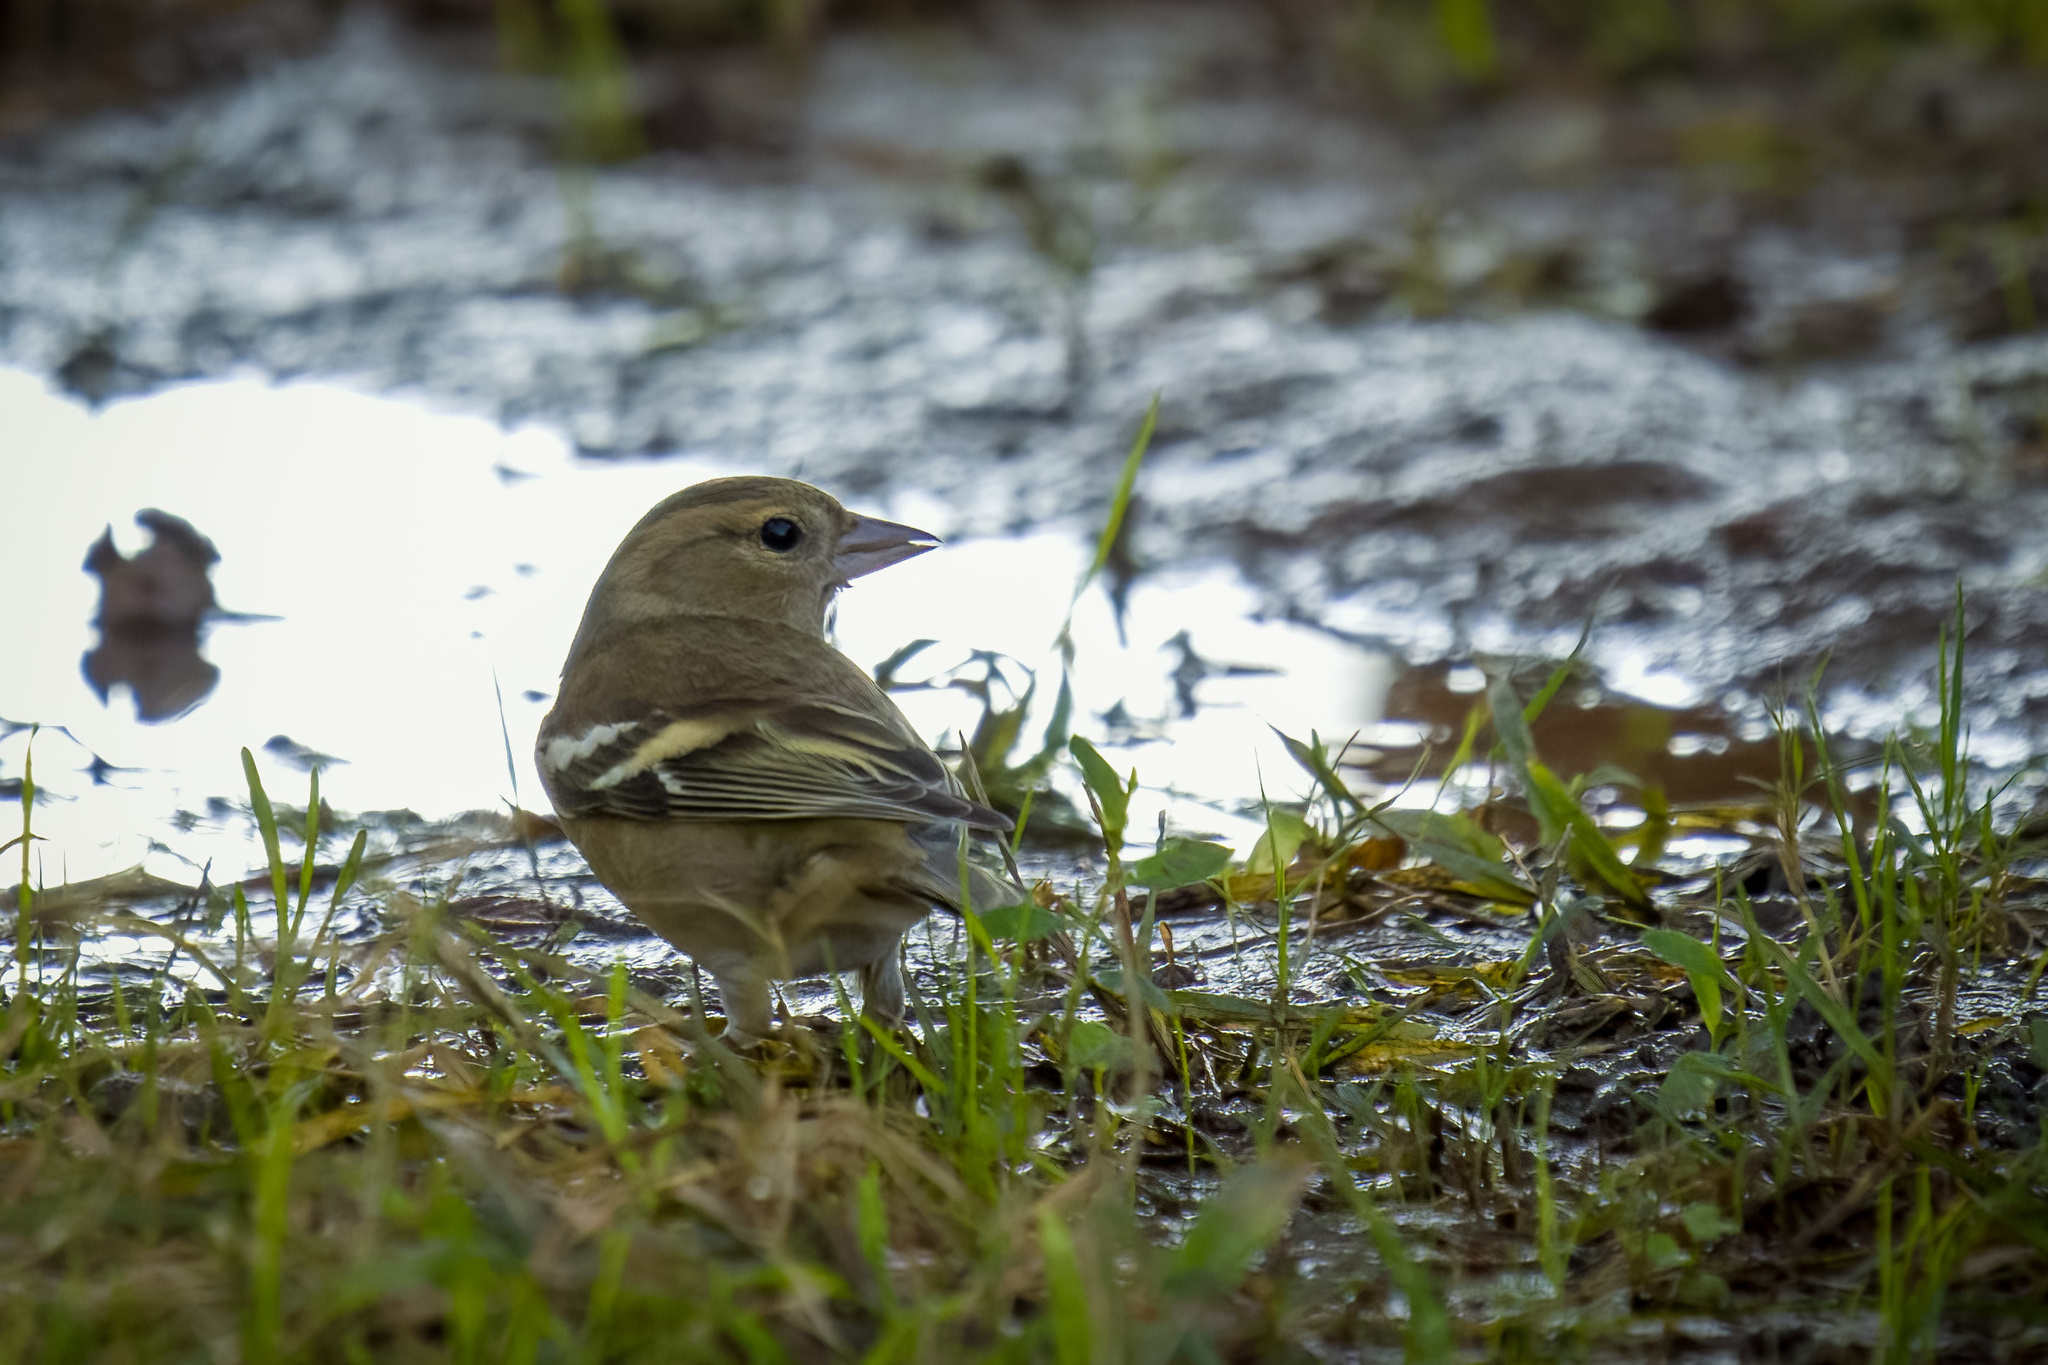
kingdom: Animalia
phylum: Chordata
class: Aves
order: Passeriformes
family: Fringillidae
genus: Fringilla
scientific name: Fringilla coelebs
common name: Common chaffinch
